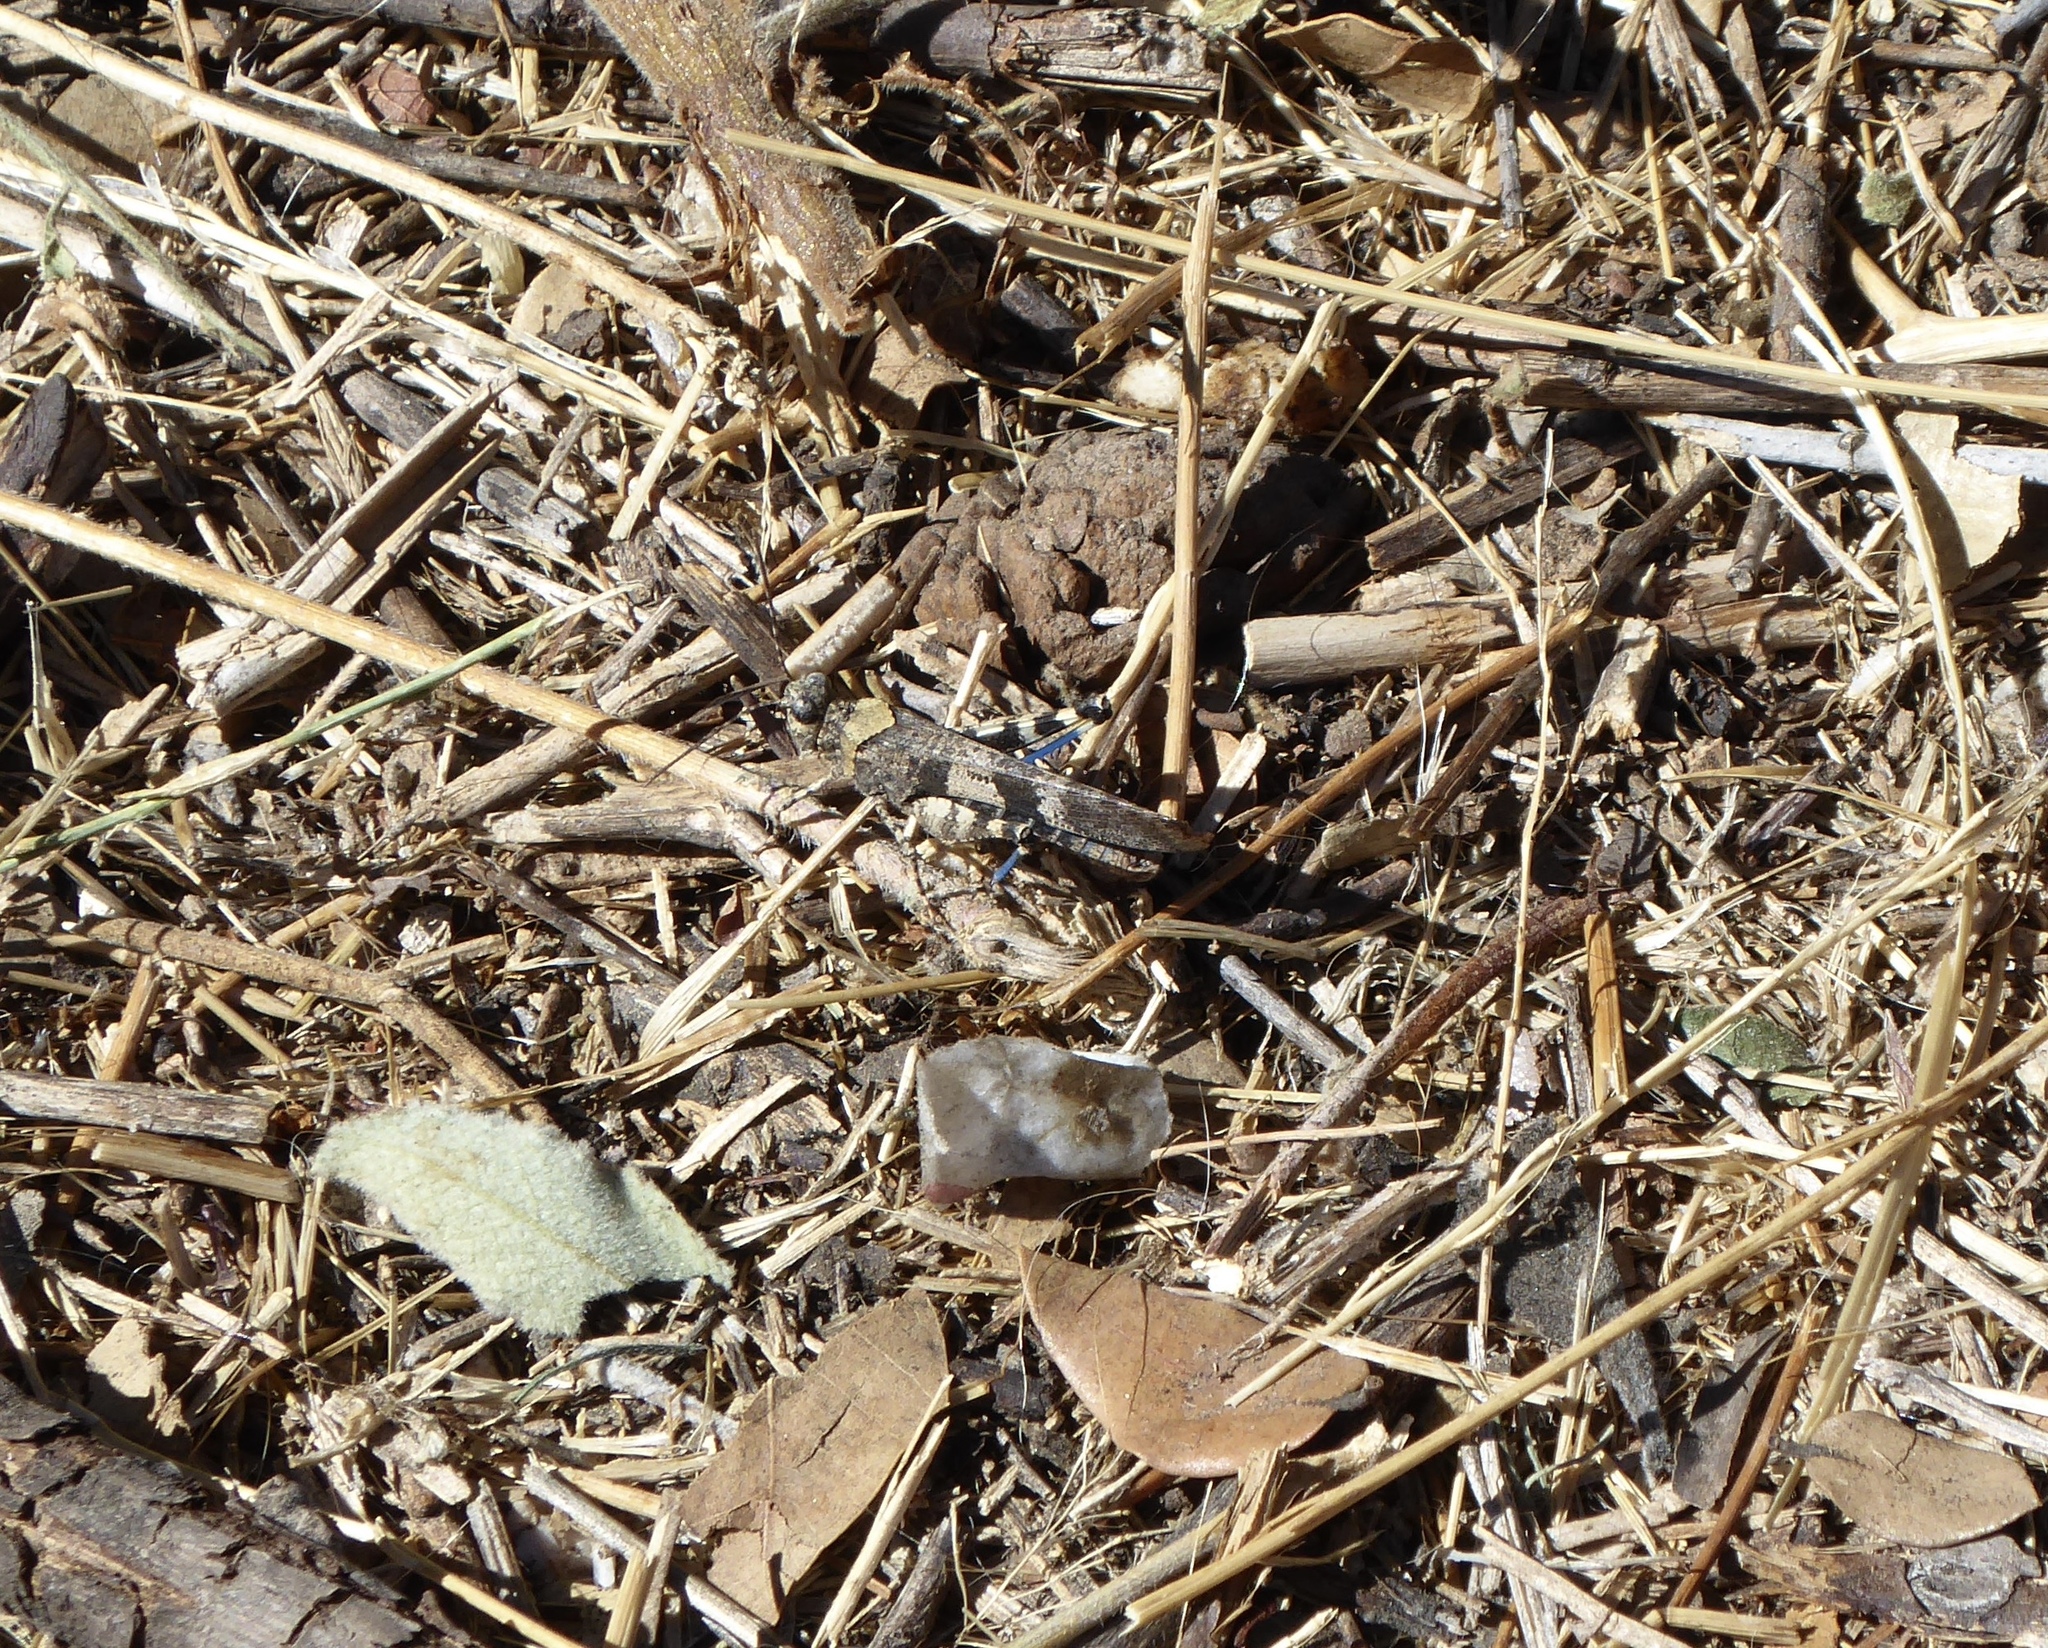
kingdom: Animalia
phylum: Arthropoda
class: Insecta
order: Orthoptera
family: Acrididae
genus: Trimerotropis
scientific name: Trimerotropis fontana
